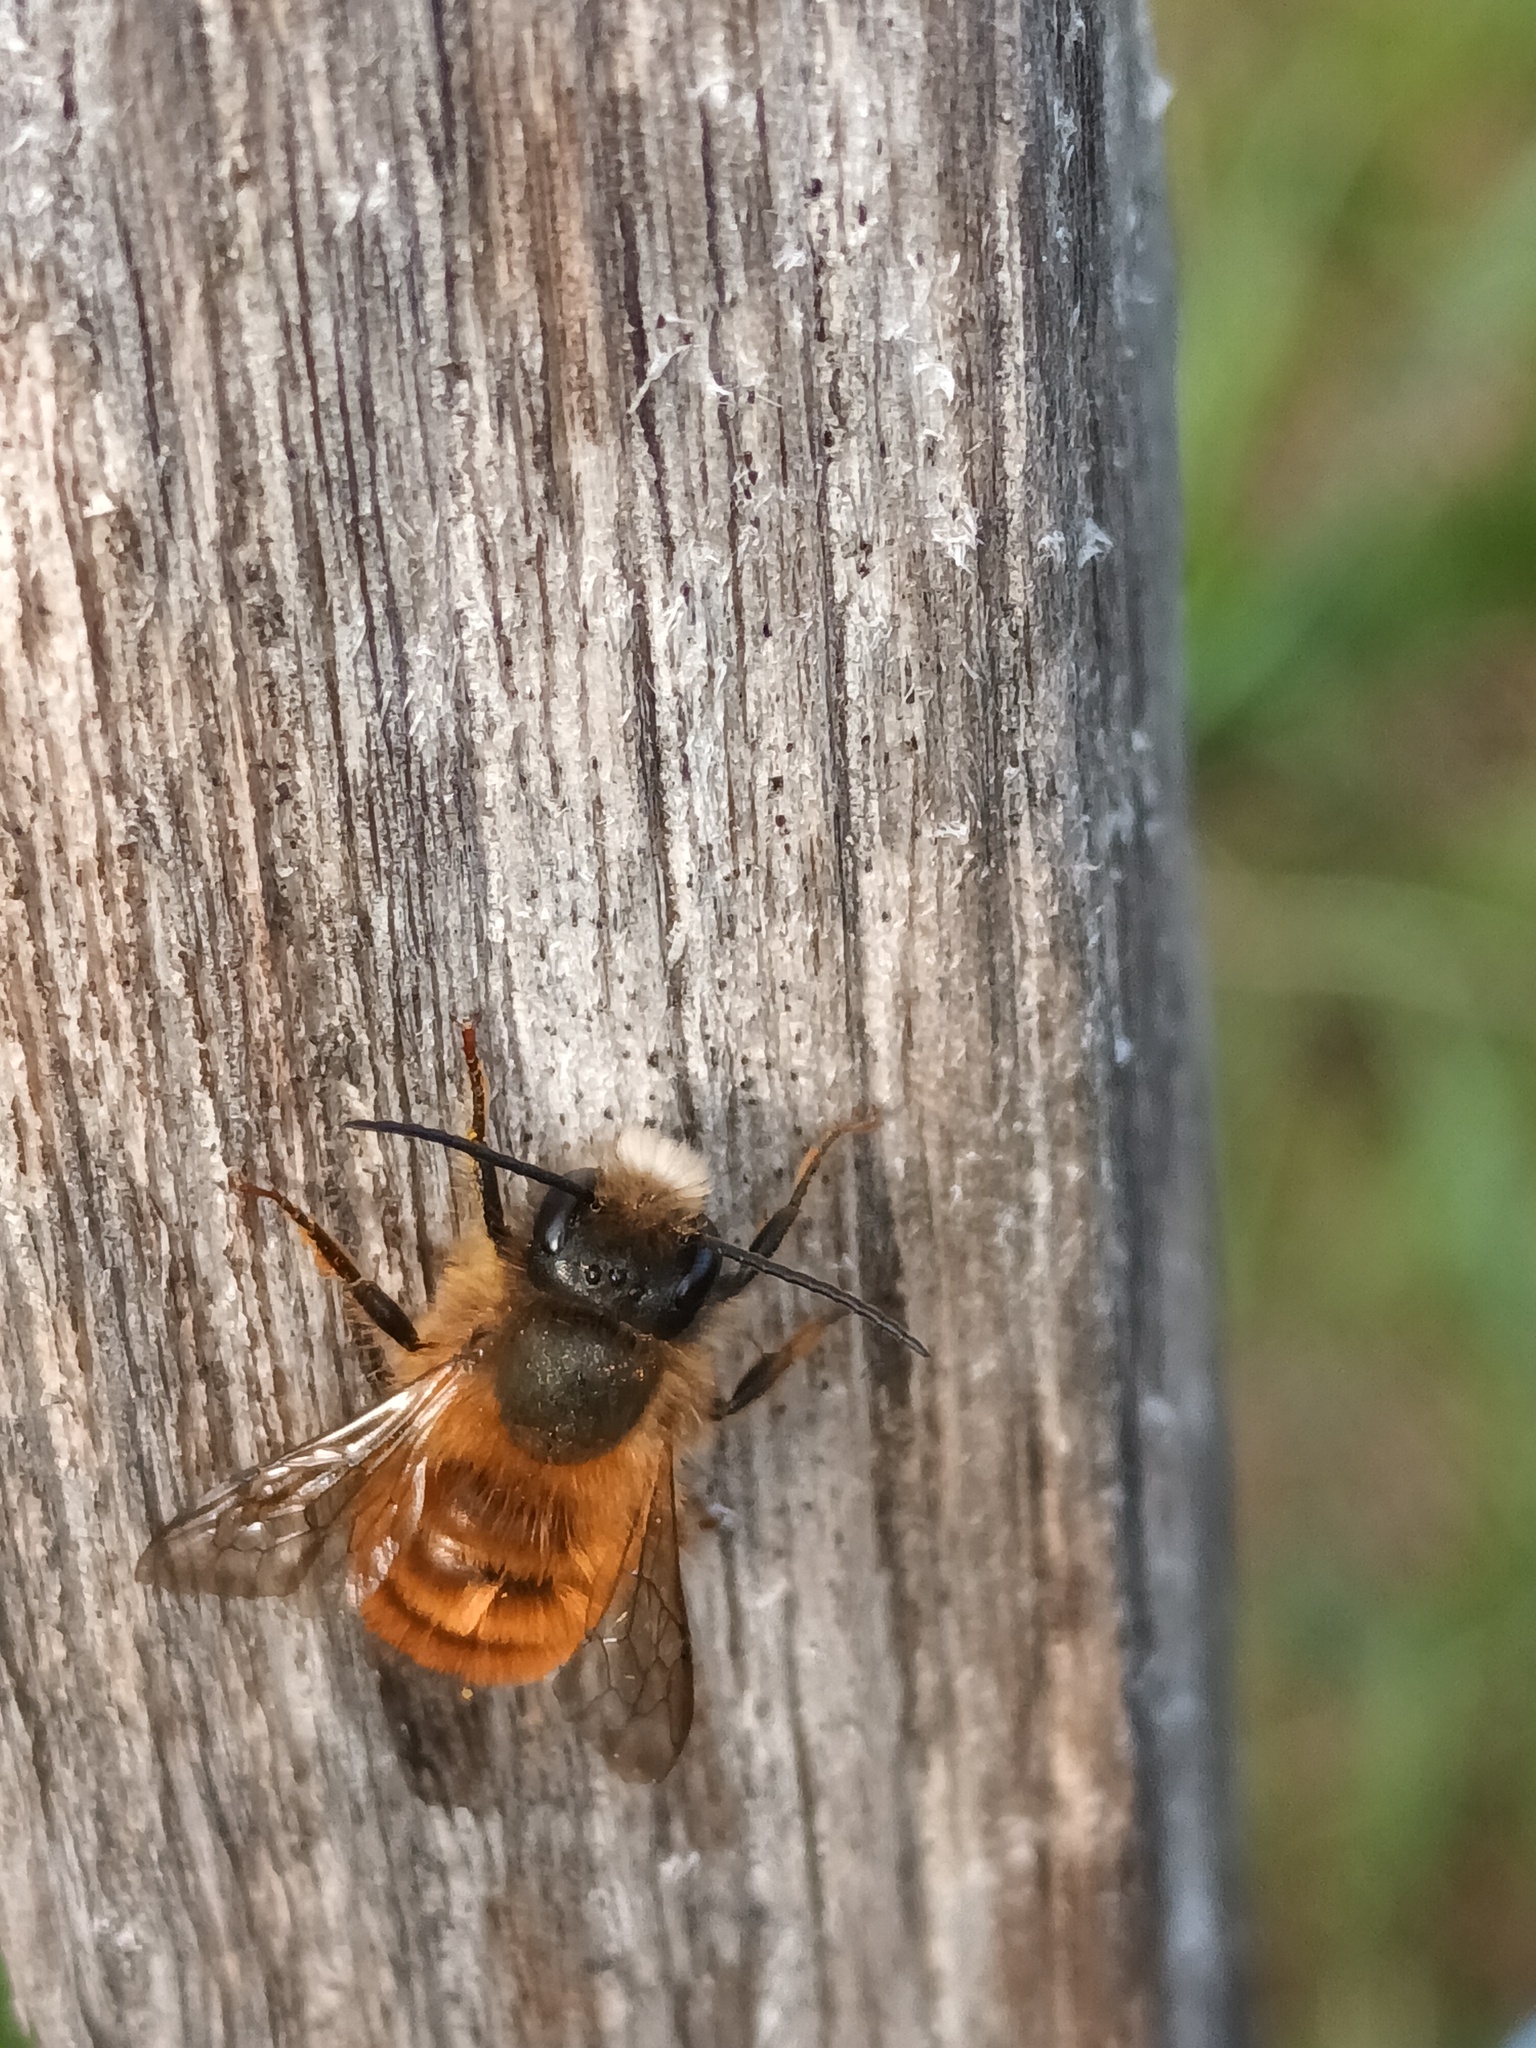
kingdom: Animalia
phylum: Arthropoda
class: Insecta
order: Hymenoptera
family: Megachilidae
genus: Osmia
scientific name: Osmia bicornis
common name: Red mason bee
